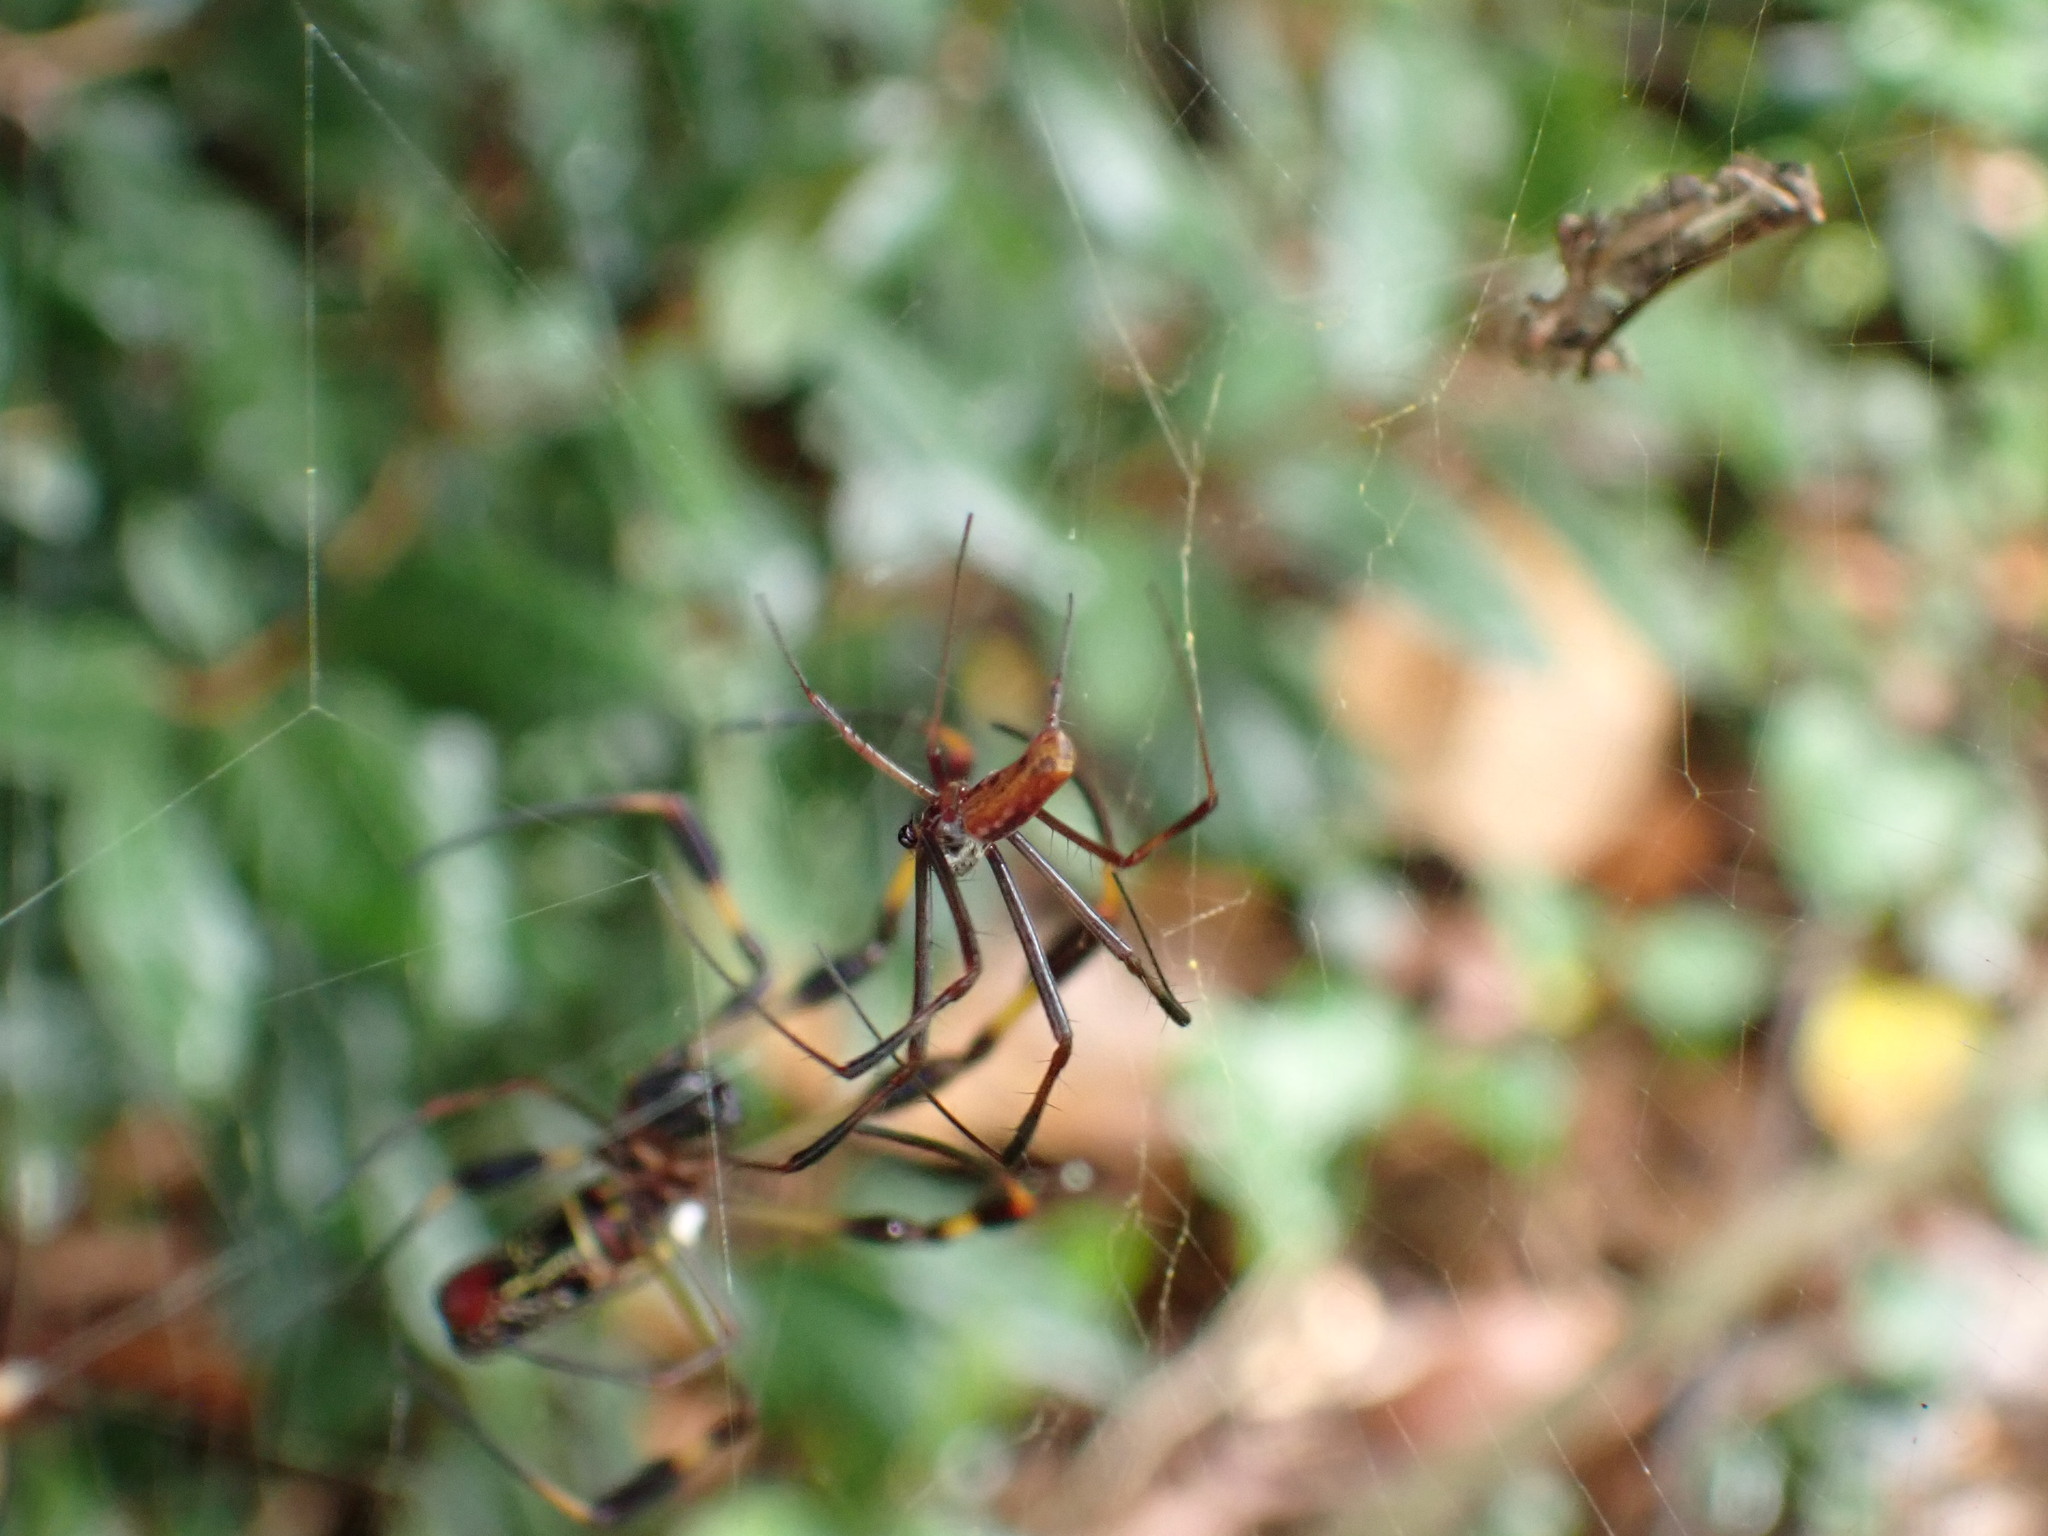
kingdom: Animalia
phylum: Arthropoda
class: Arachnida
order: Araneae
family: Araneidae
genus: Trichonephila
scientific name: Trichonephila clavipes
